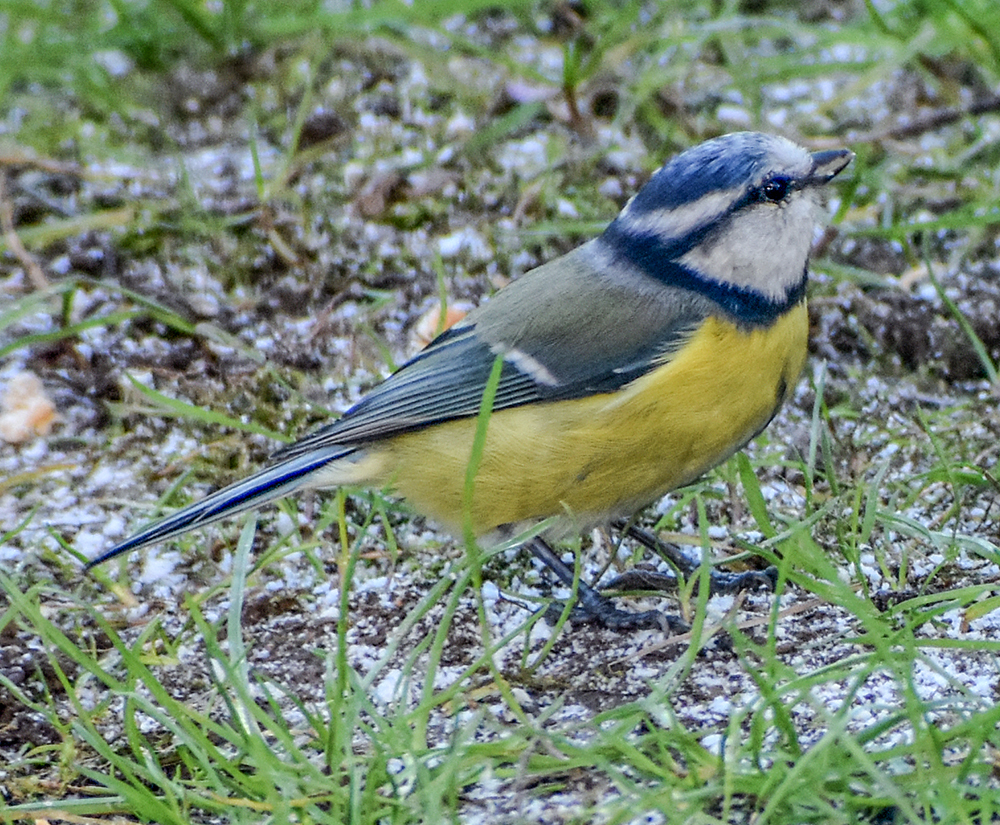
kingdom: Animalia
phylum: Chordata
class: Aves
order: Passeriformes
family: Paridae
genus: Cyanistes
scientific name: Cyanistes caeruleus
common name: Eurasian blue tit
